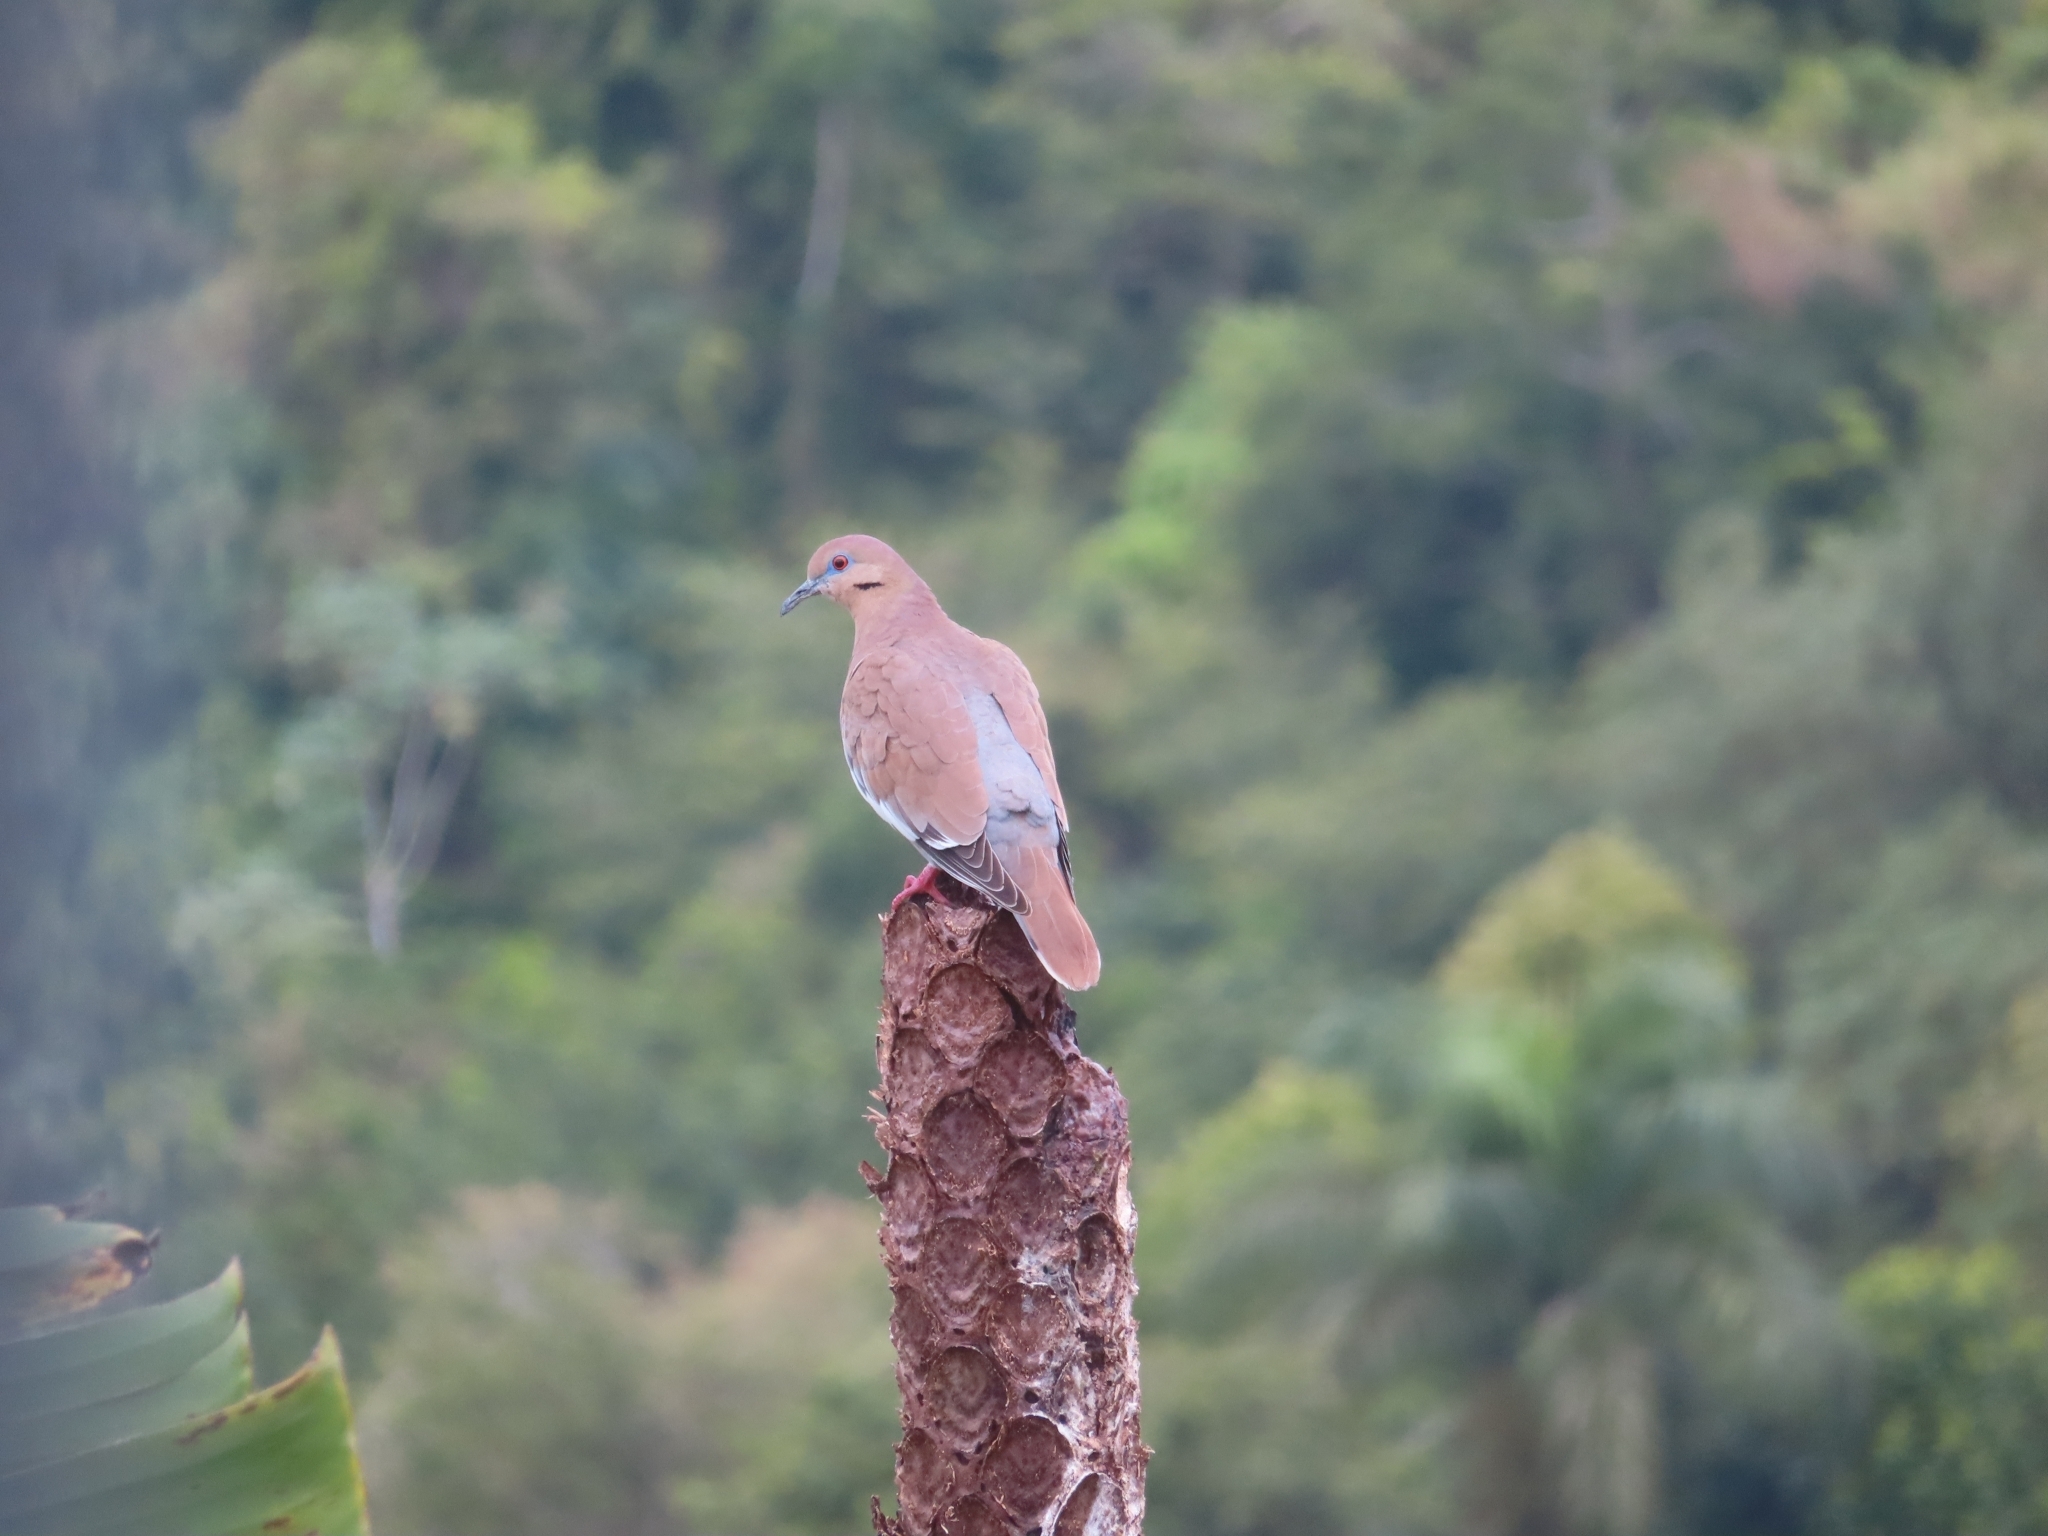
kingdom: Animalia
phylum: Chordata
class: Aves
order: Columbiformes
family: Columbidae
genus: Zenaida
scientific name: Zenaida asiatica
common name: White-winged dove
